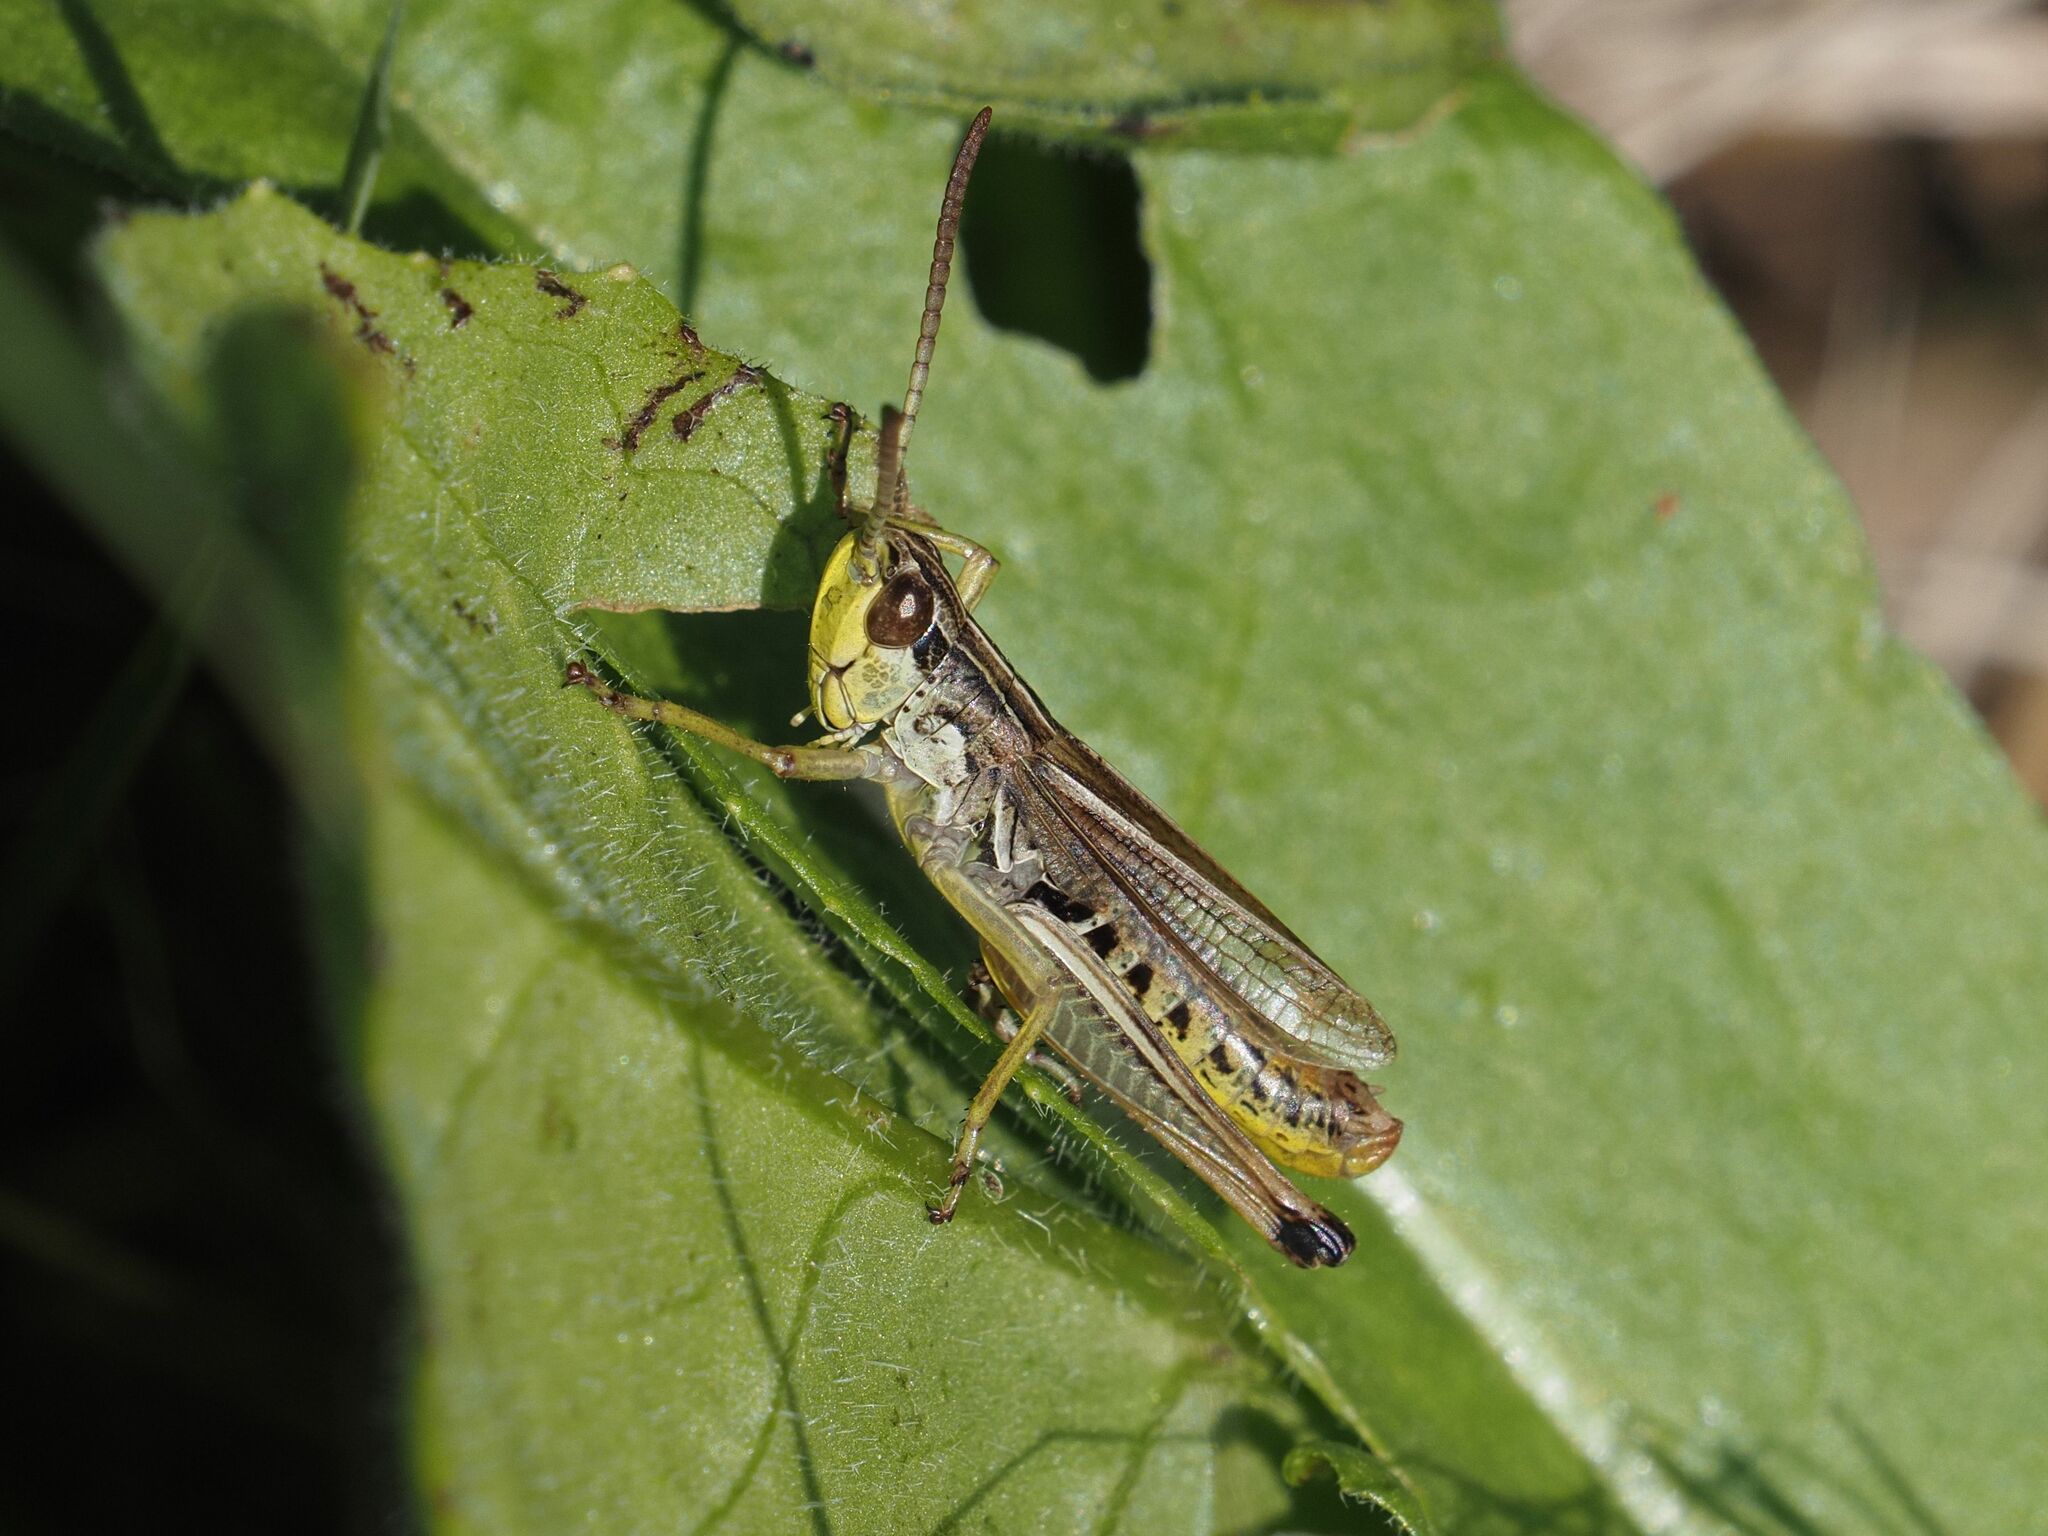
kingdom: Animalia
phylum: Arthropoda
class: Insecta
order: Orthoptera
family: Acrididae
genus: Pseudochorthippus
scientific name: Pseudochorthippus parallelus
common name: Meadow grasshopper
